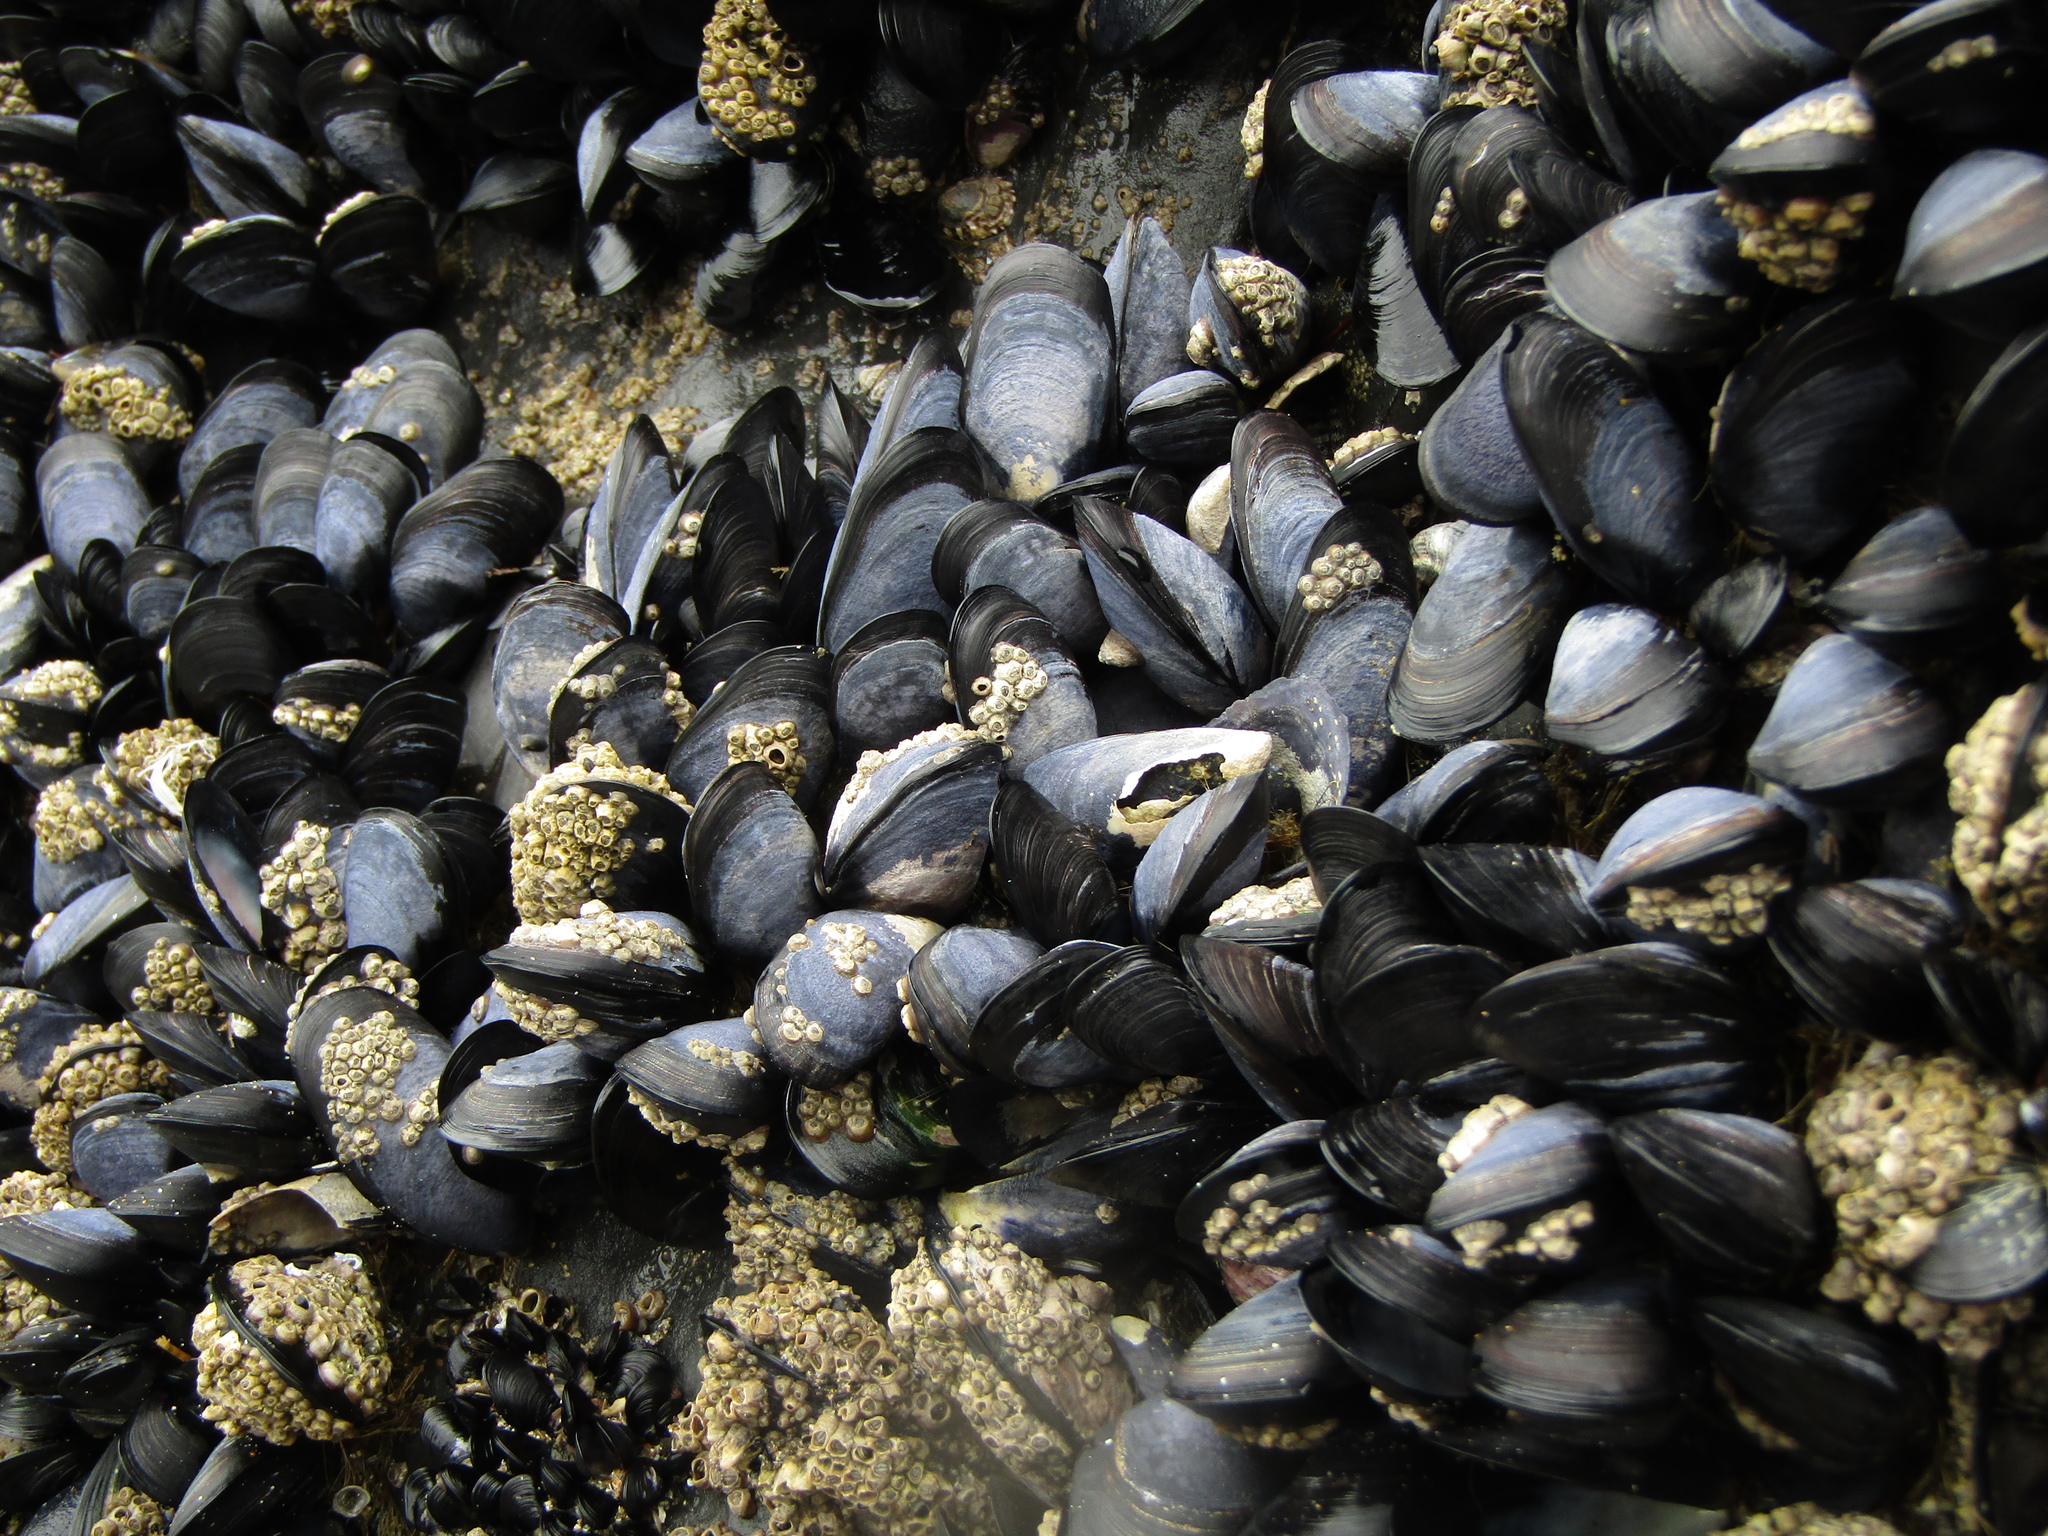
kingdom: Animalia
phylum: Mollusca
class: Bivalvia
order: Mytilida
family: Mytilidae
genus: Mytilus
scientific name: Mytilus planulatus
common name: Australian mussel
